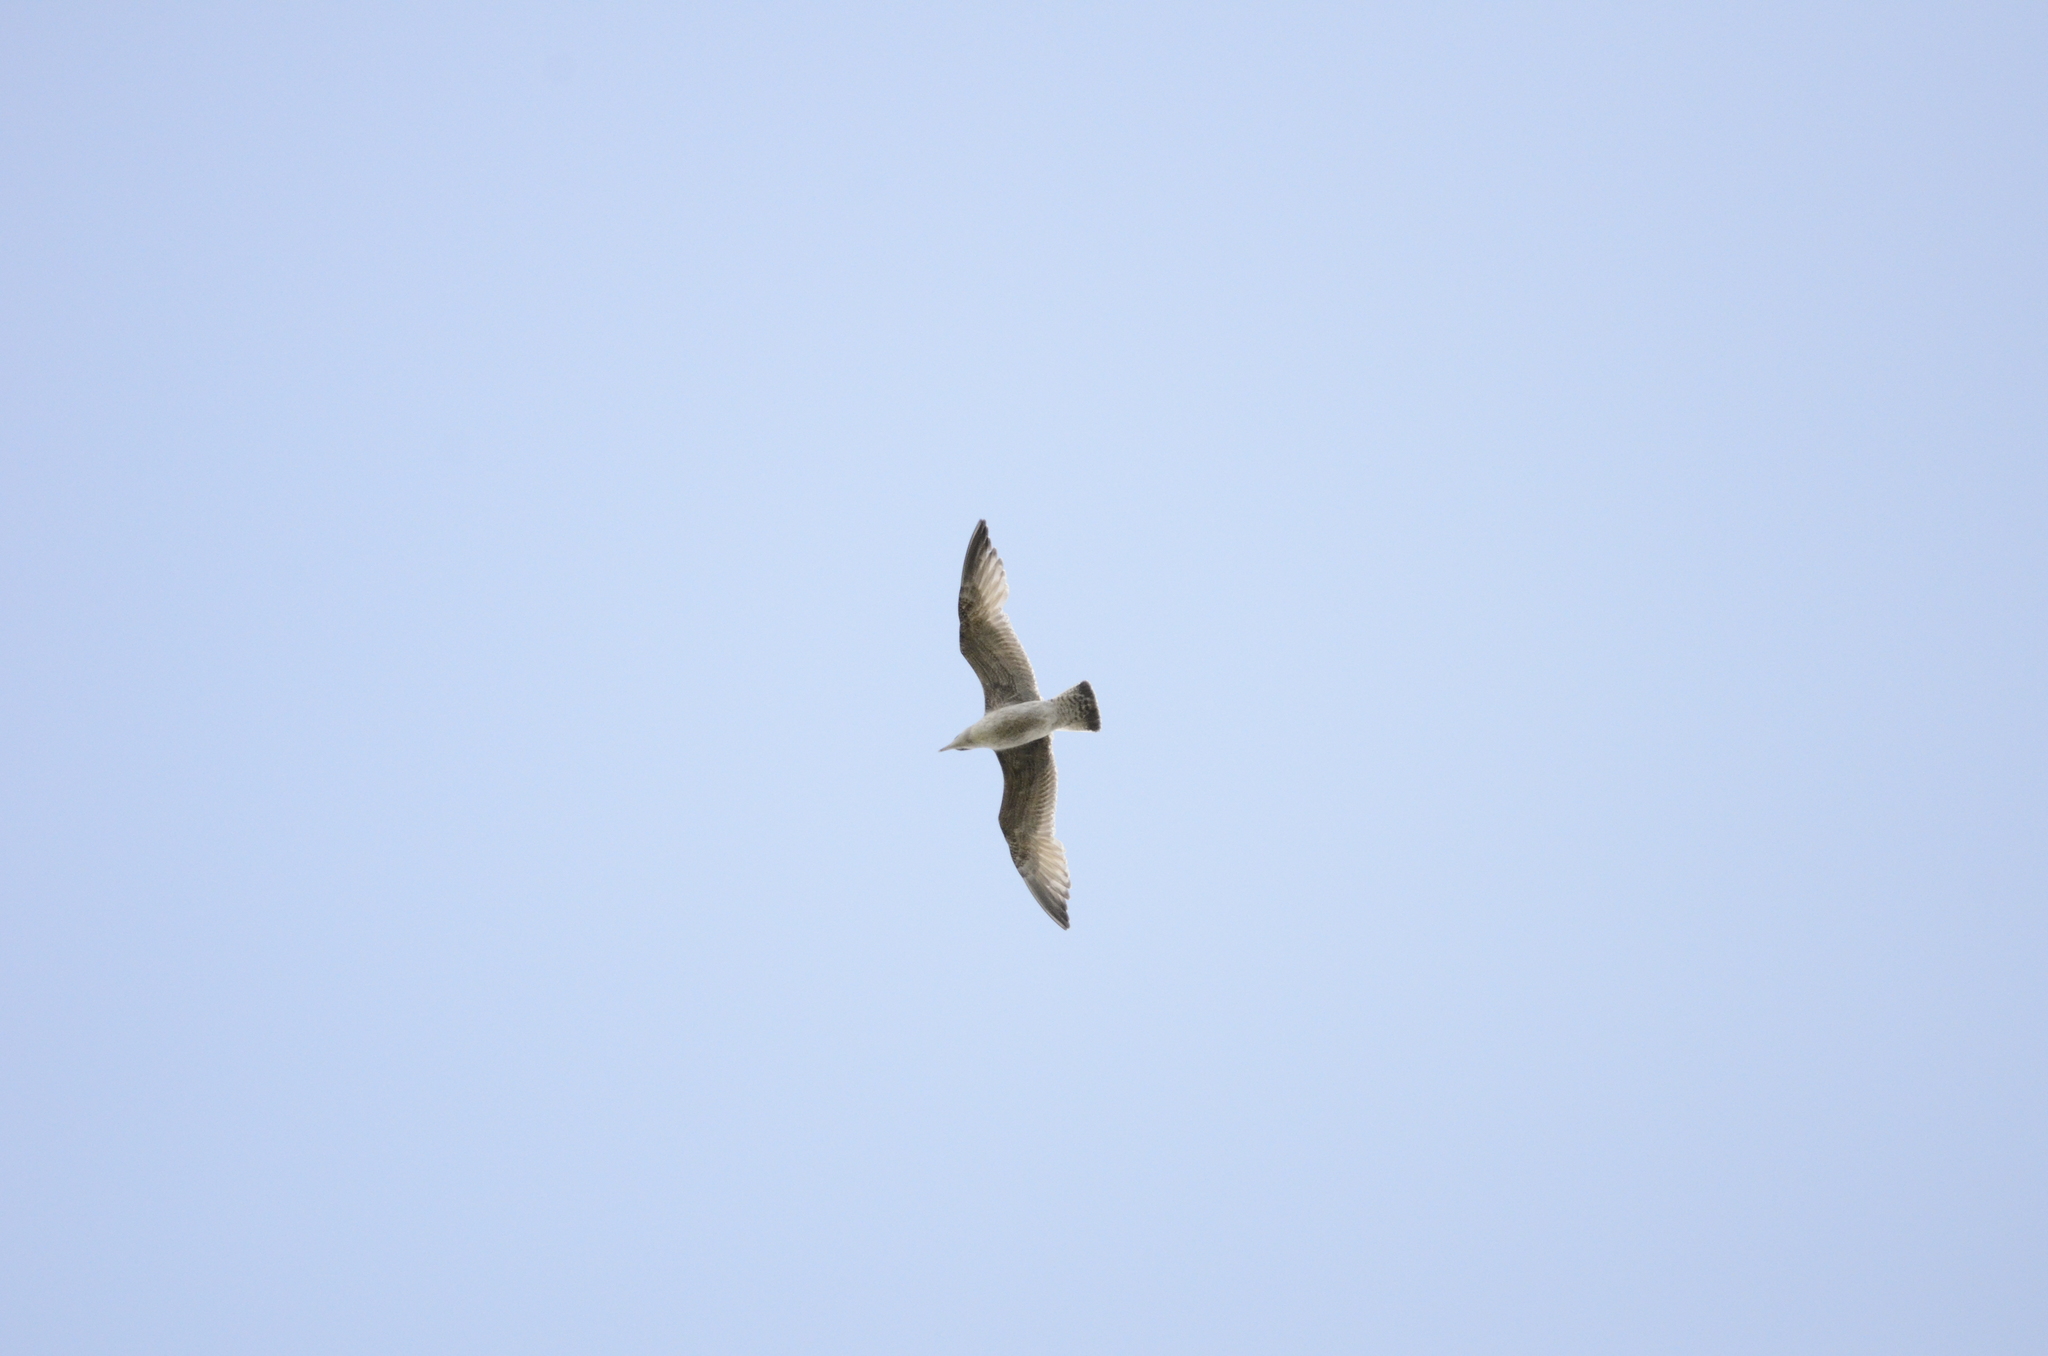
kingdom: Animalia
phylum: Chordata
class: Aves
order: Charadriiformes
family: Laridae
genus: Larus
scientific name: Larus argentatus
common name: Herring gull
